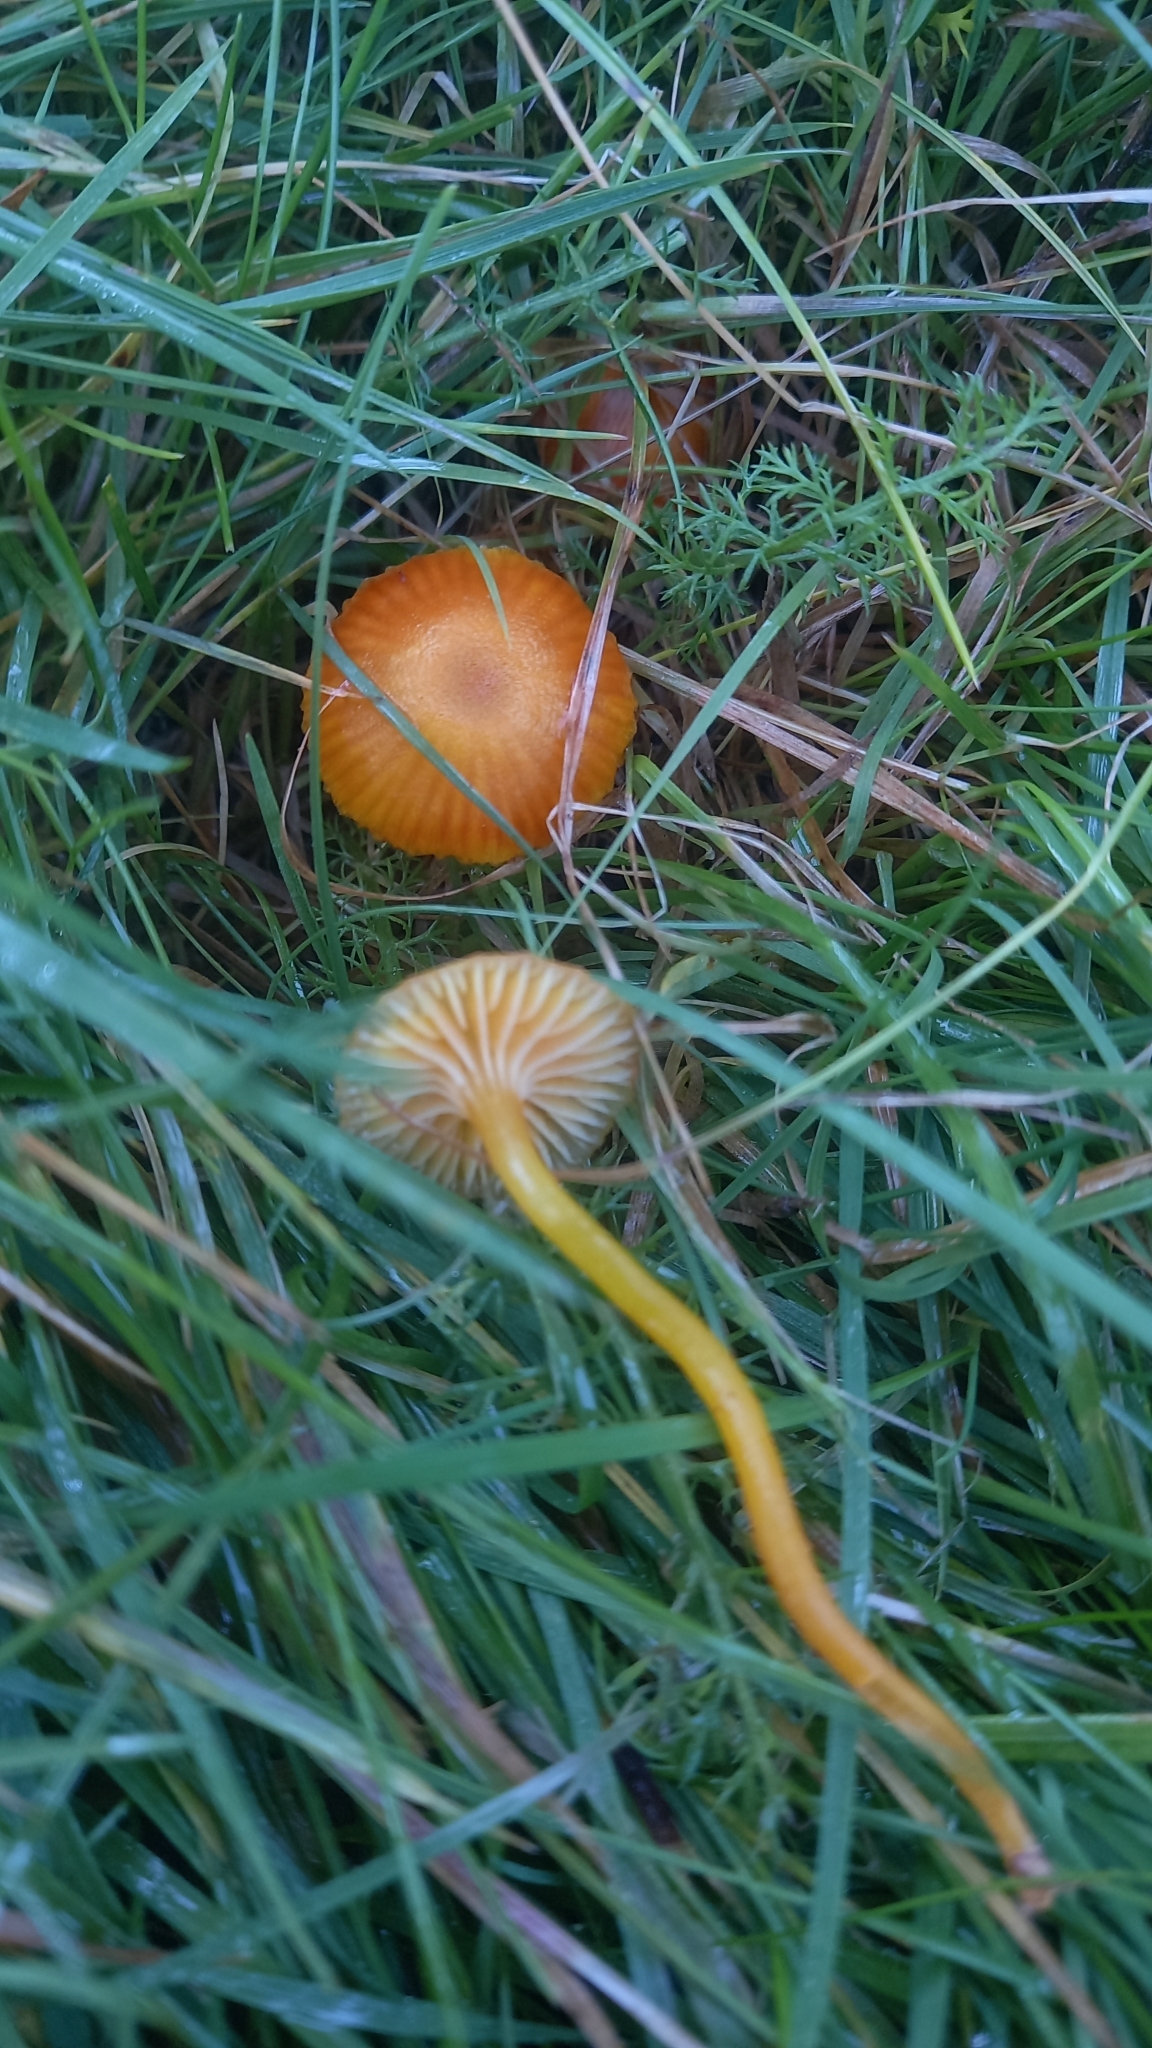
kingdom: Fungi
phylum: Basidiomycota
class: Agaricomycetes
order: Agaricales
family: Hygrophoraceae
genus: Hygrocybe
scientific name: Hygrocybe insipida
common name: Spangle waxcap
